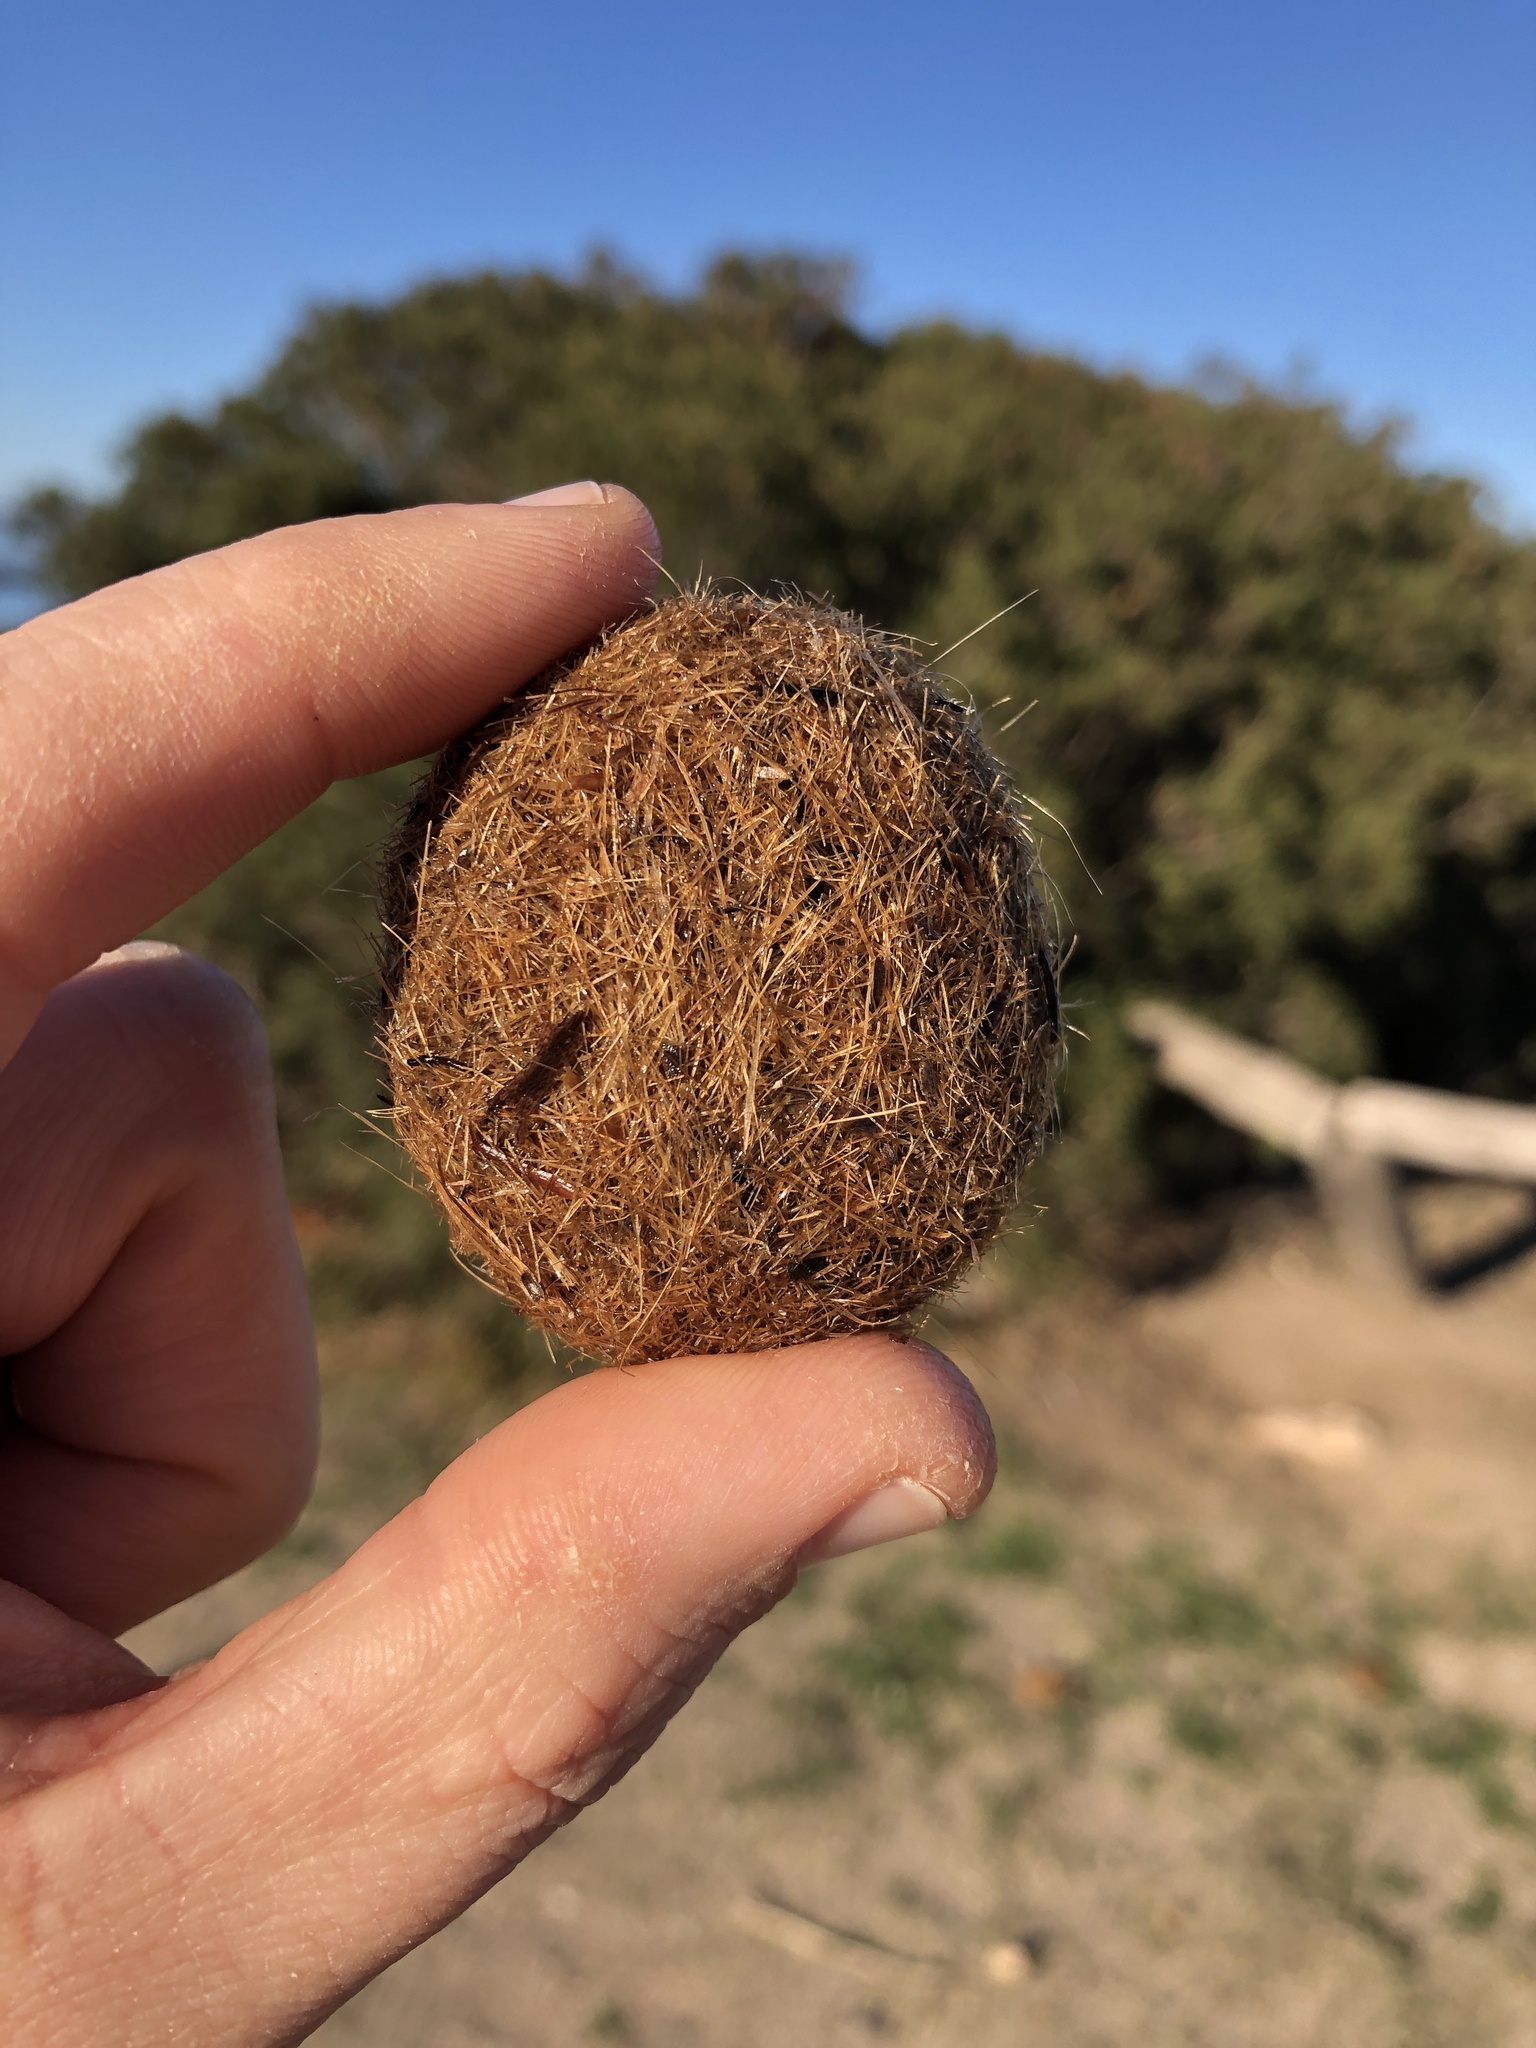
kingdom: Plantae
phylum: Tracheophyta
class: Liliopsida
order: Alismatales
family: Posidoniaceae
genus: Posidonia
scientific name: Posidonia oceanica
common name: Mediterranean tapeweed
